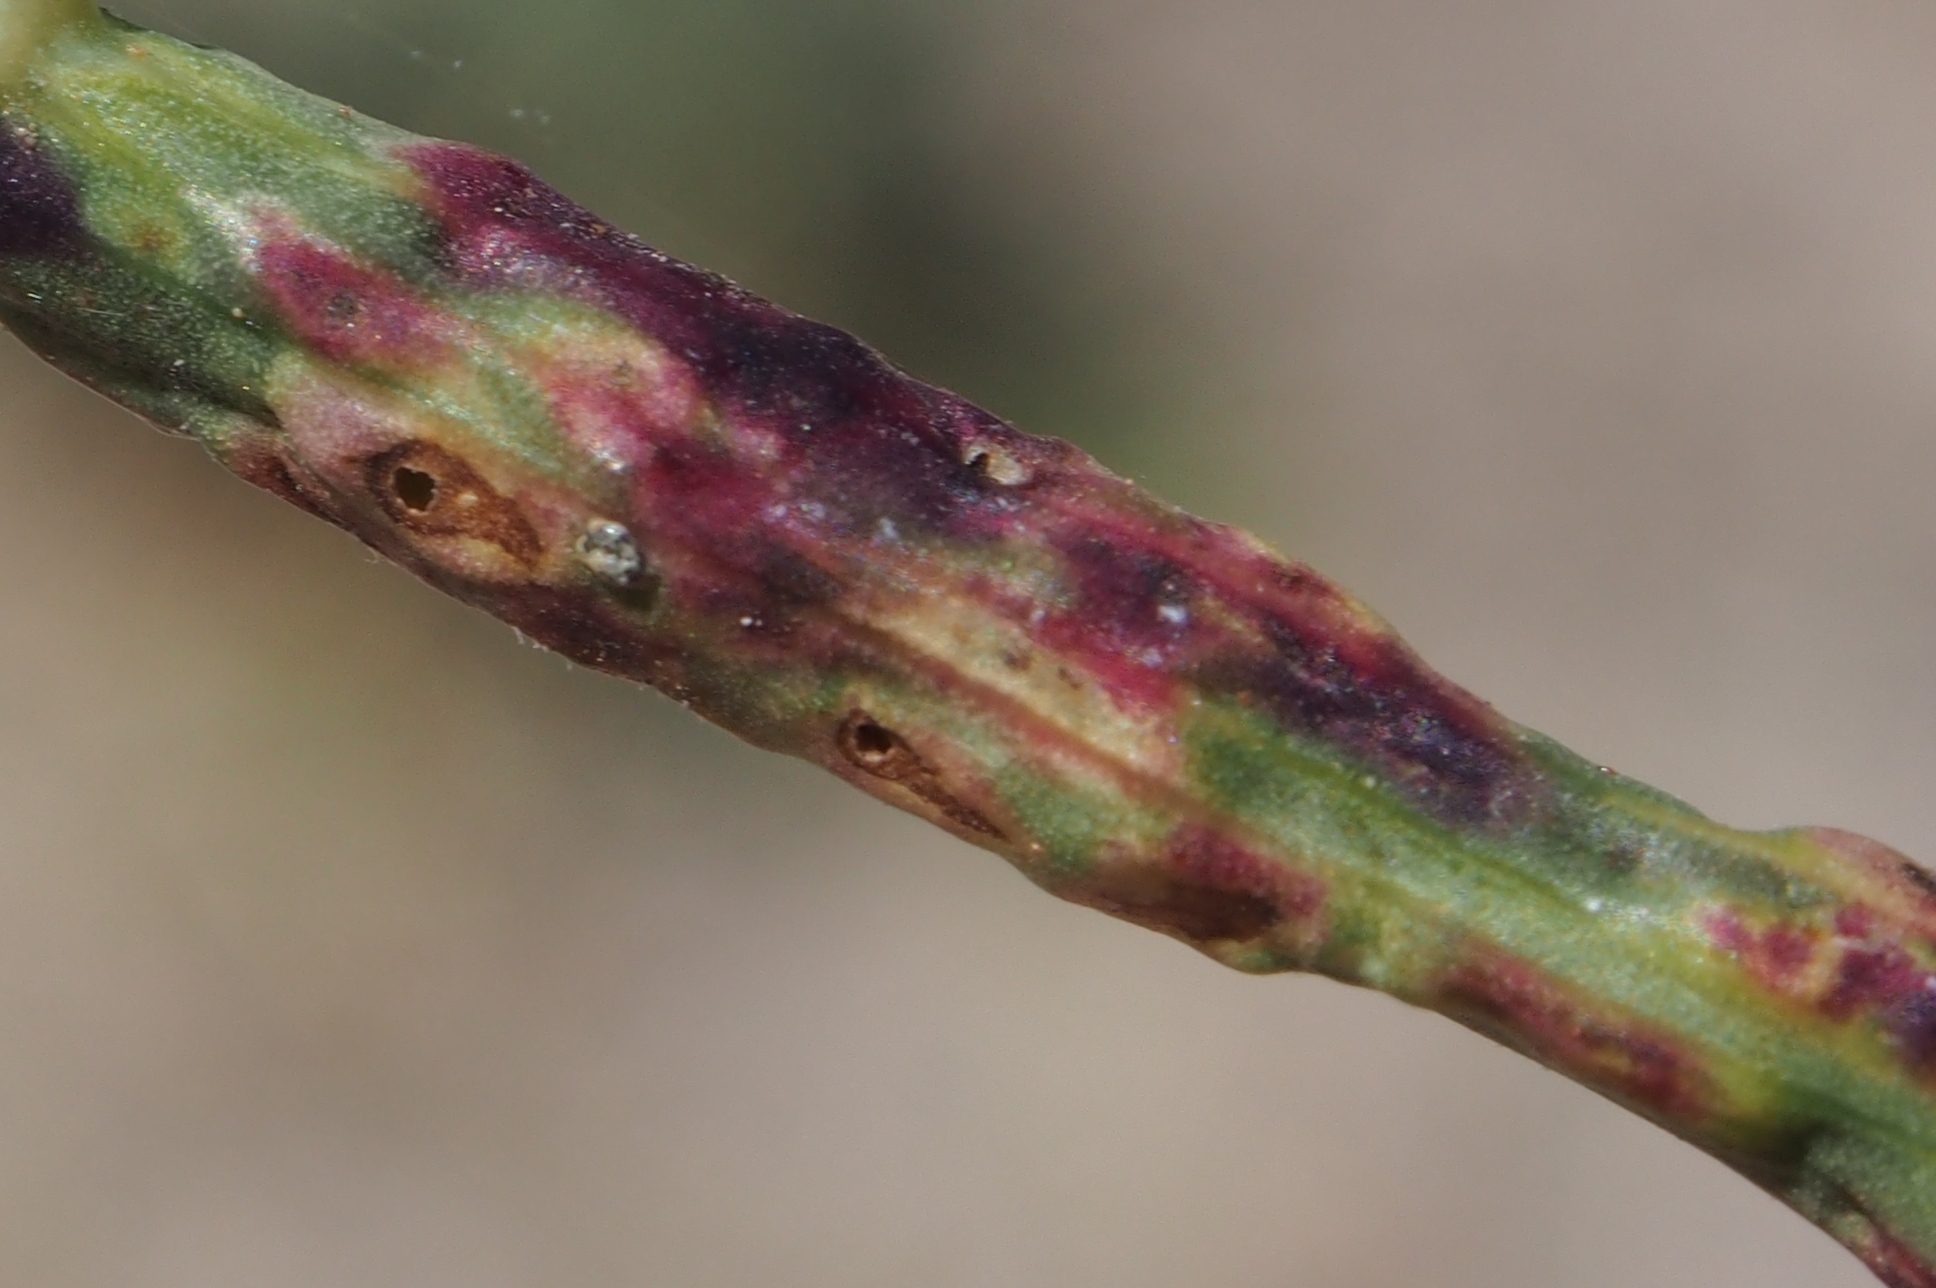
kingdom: Animalia
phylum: Arthropoda
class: Insecta
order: Diptera
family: Cecidomyiidae
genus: Cystiphora
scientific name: Cystiphora schmidti
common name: Gall midge
